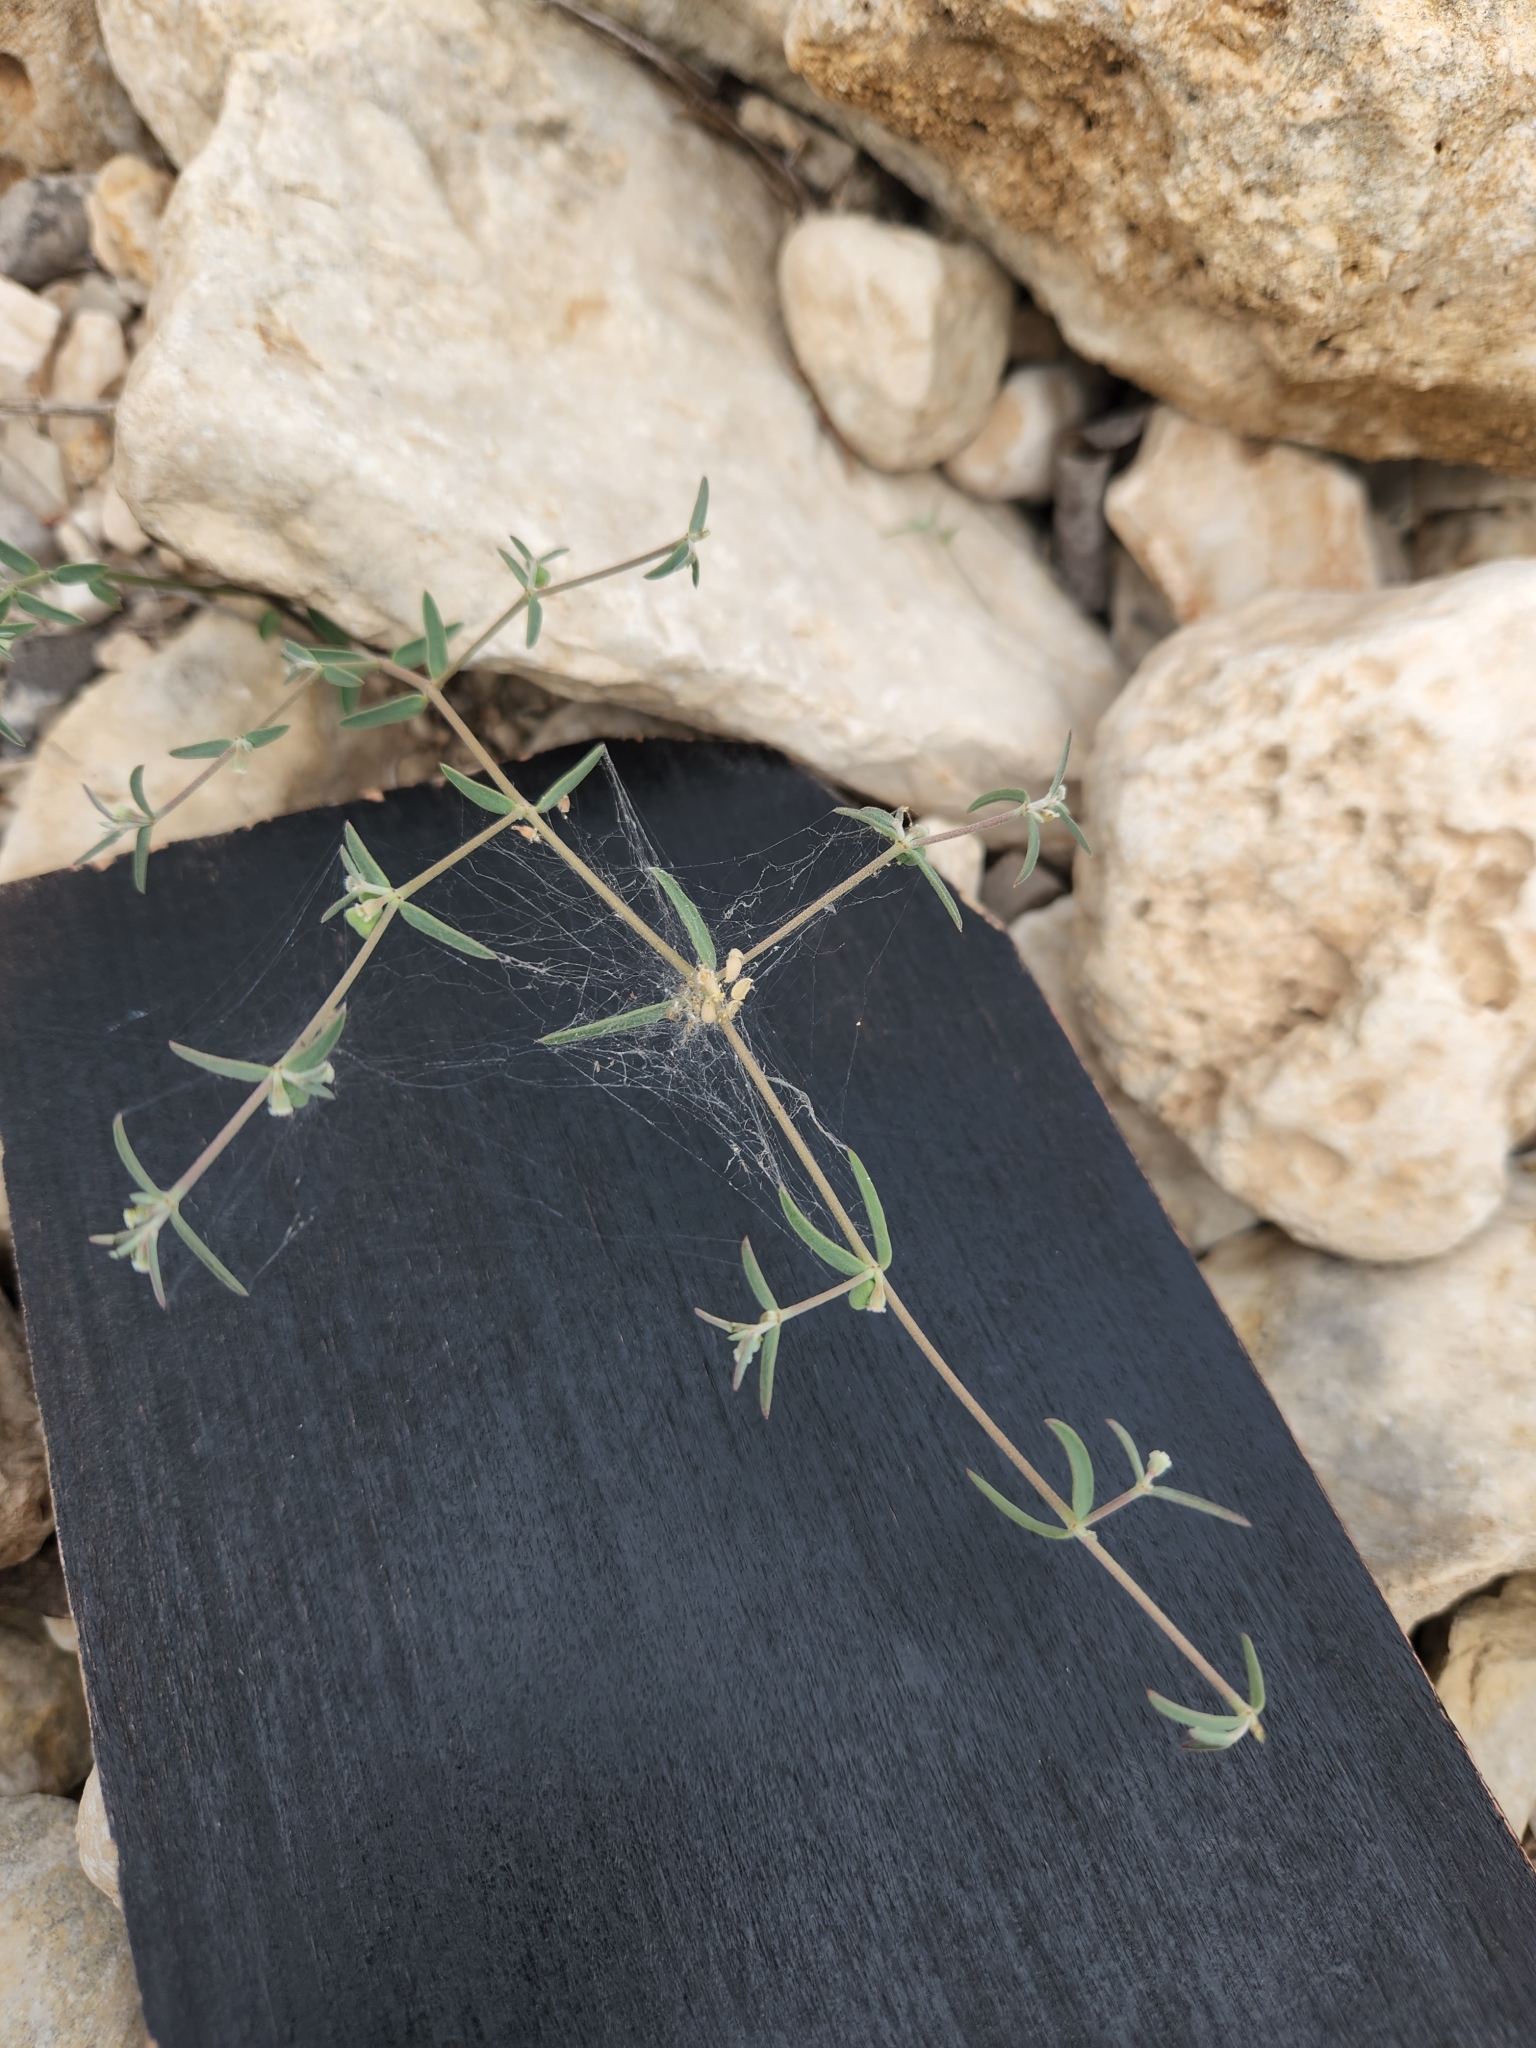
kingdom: Plantae
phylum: Tracheophyta
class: Magnoliopsida
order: Malpighiales
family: Euphorbiaceae
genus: Euphorbia
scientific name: Euphorbia angusta
